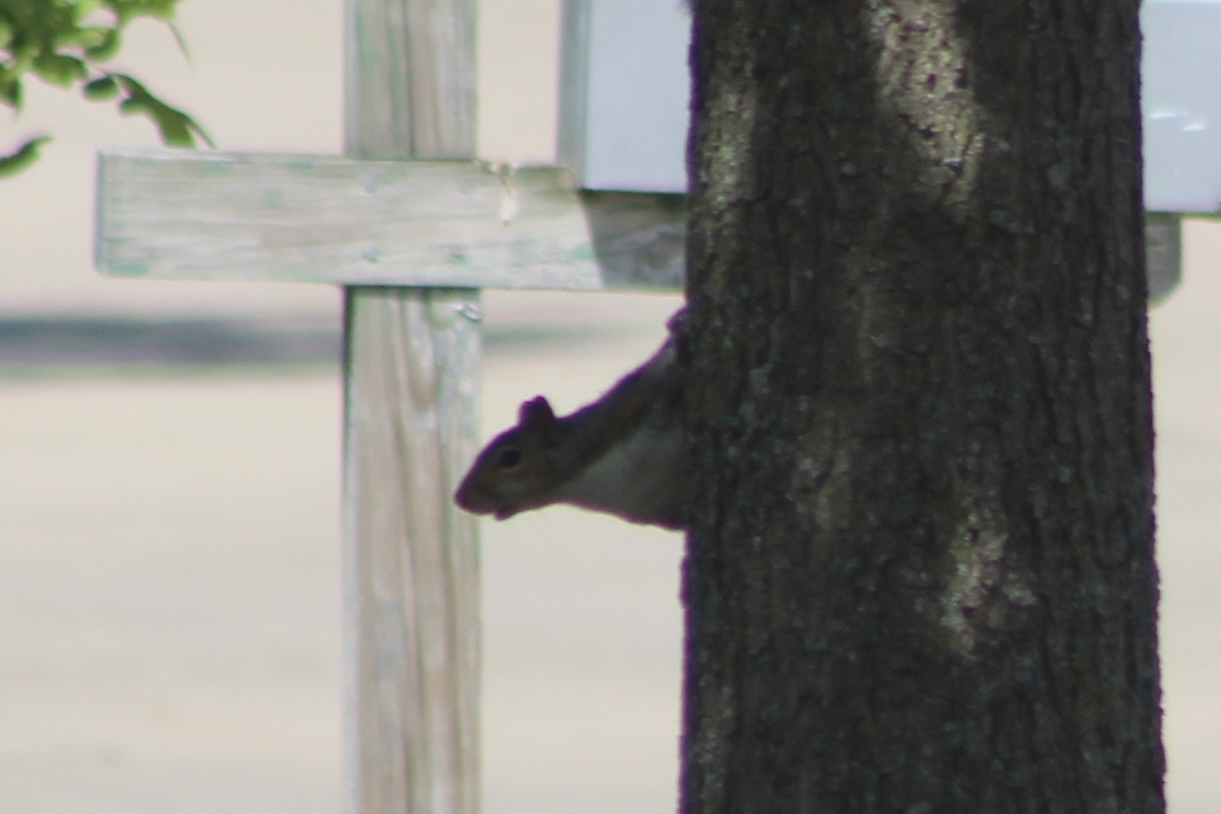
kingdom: Animalia
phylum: Chordata
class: Mammalia
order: Rodentia
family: Sciuridae
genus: Sciurus
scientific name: Sciurus carolinensis
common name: Eastern gray squirrel
